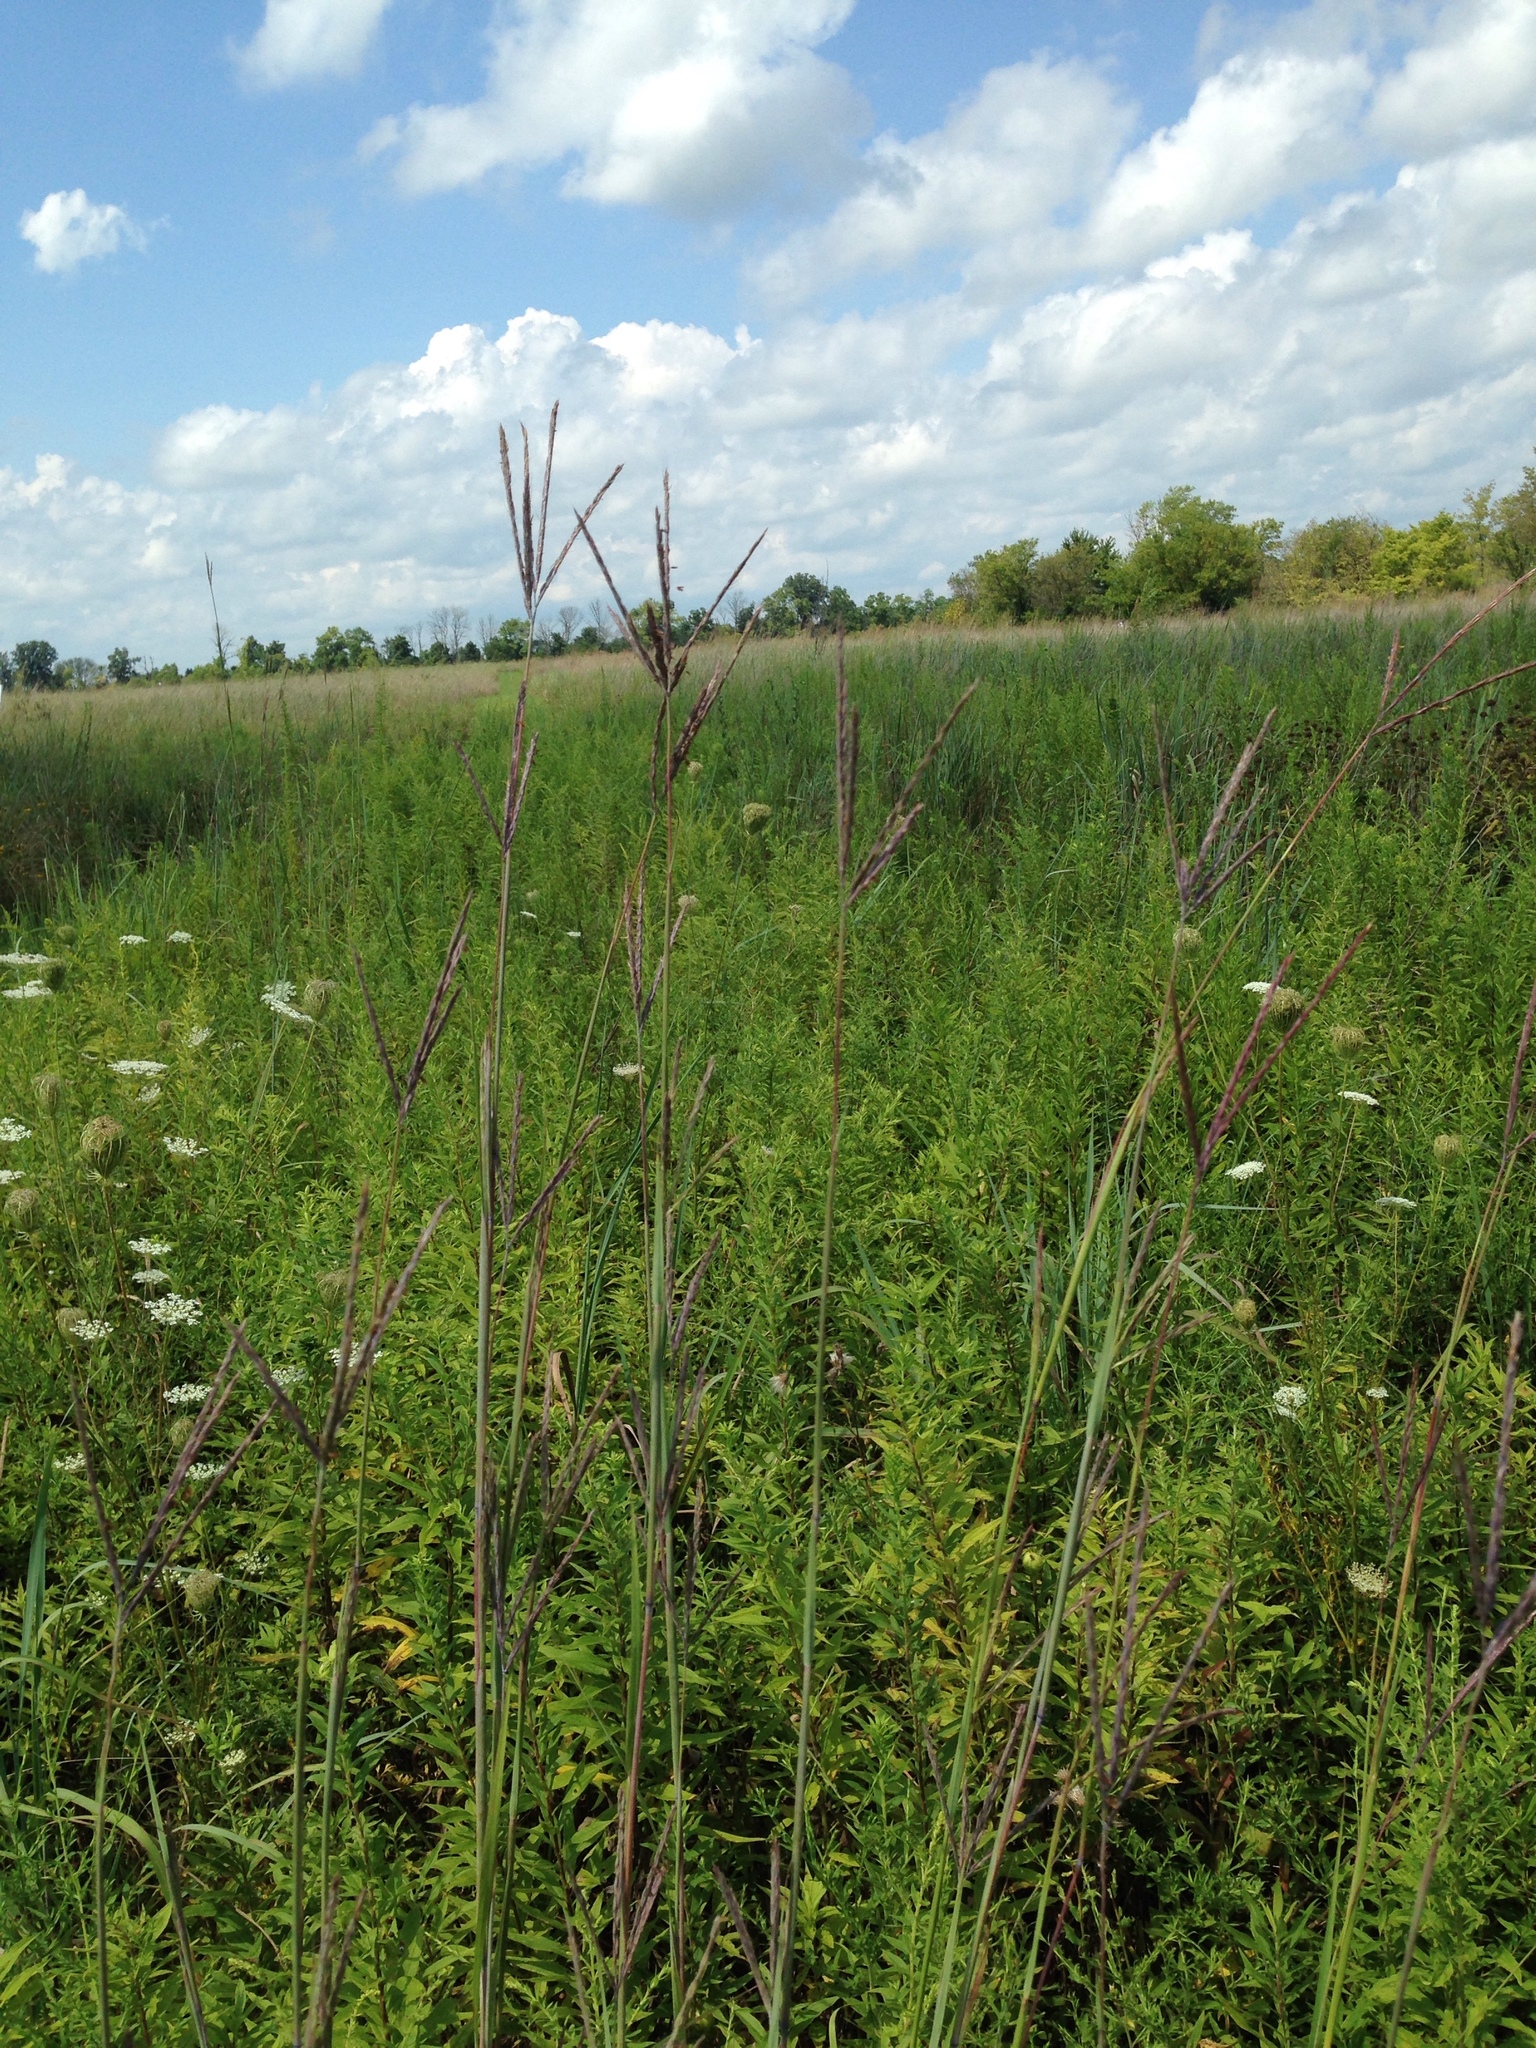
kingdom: Plantae
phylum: Tracheophyta
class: Liliopsida
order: Poales
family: Poaceae
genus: Andropogon
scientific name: Andropogon gerardi
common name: Big bluestem
